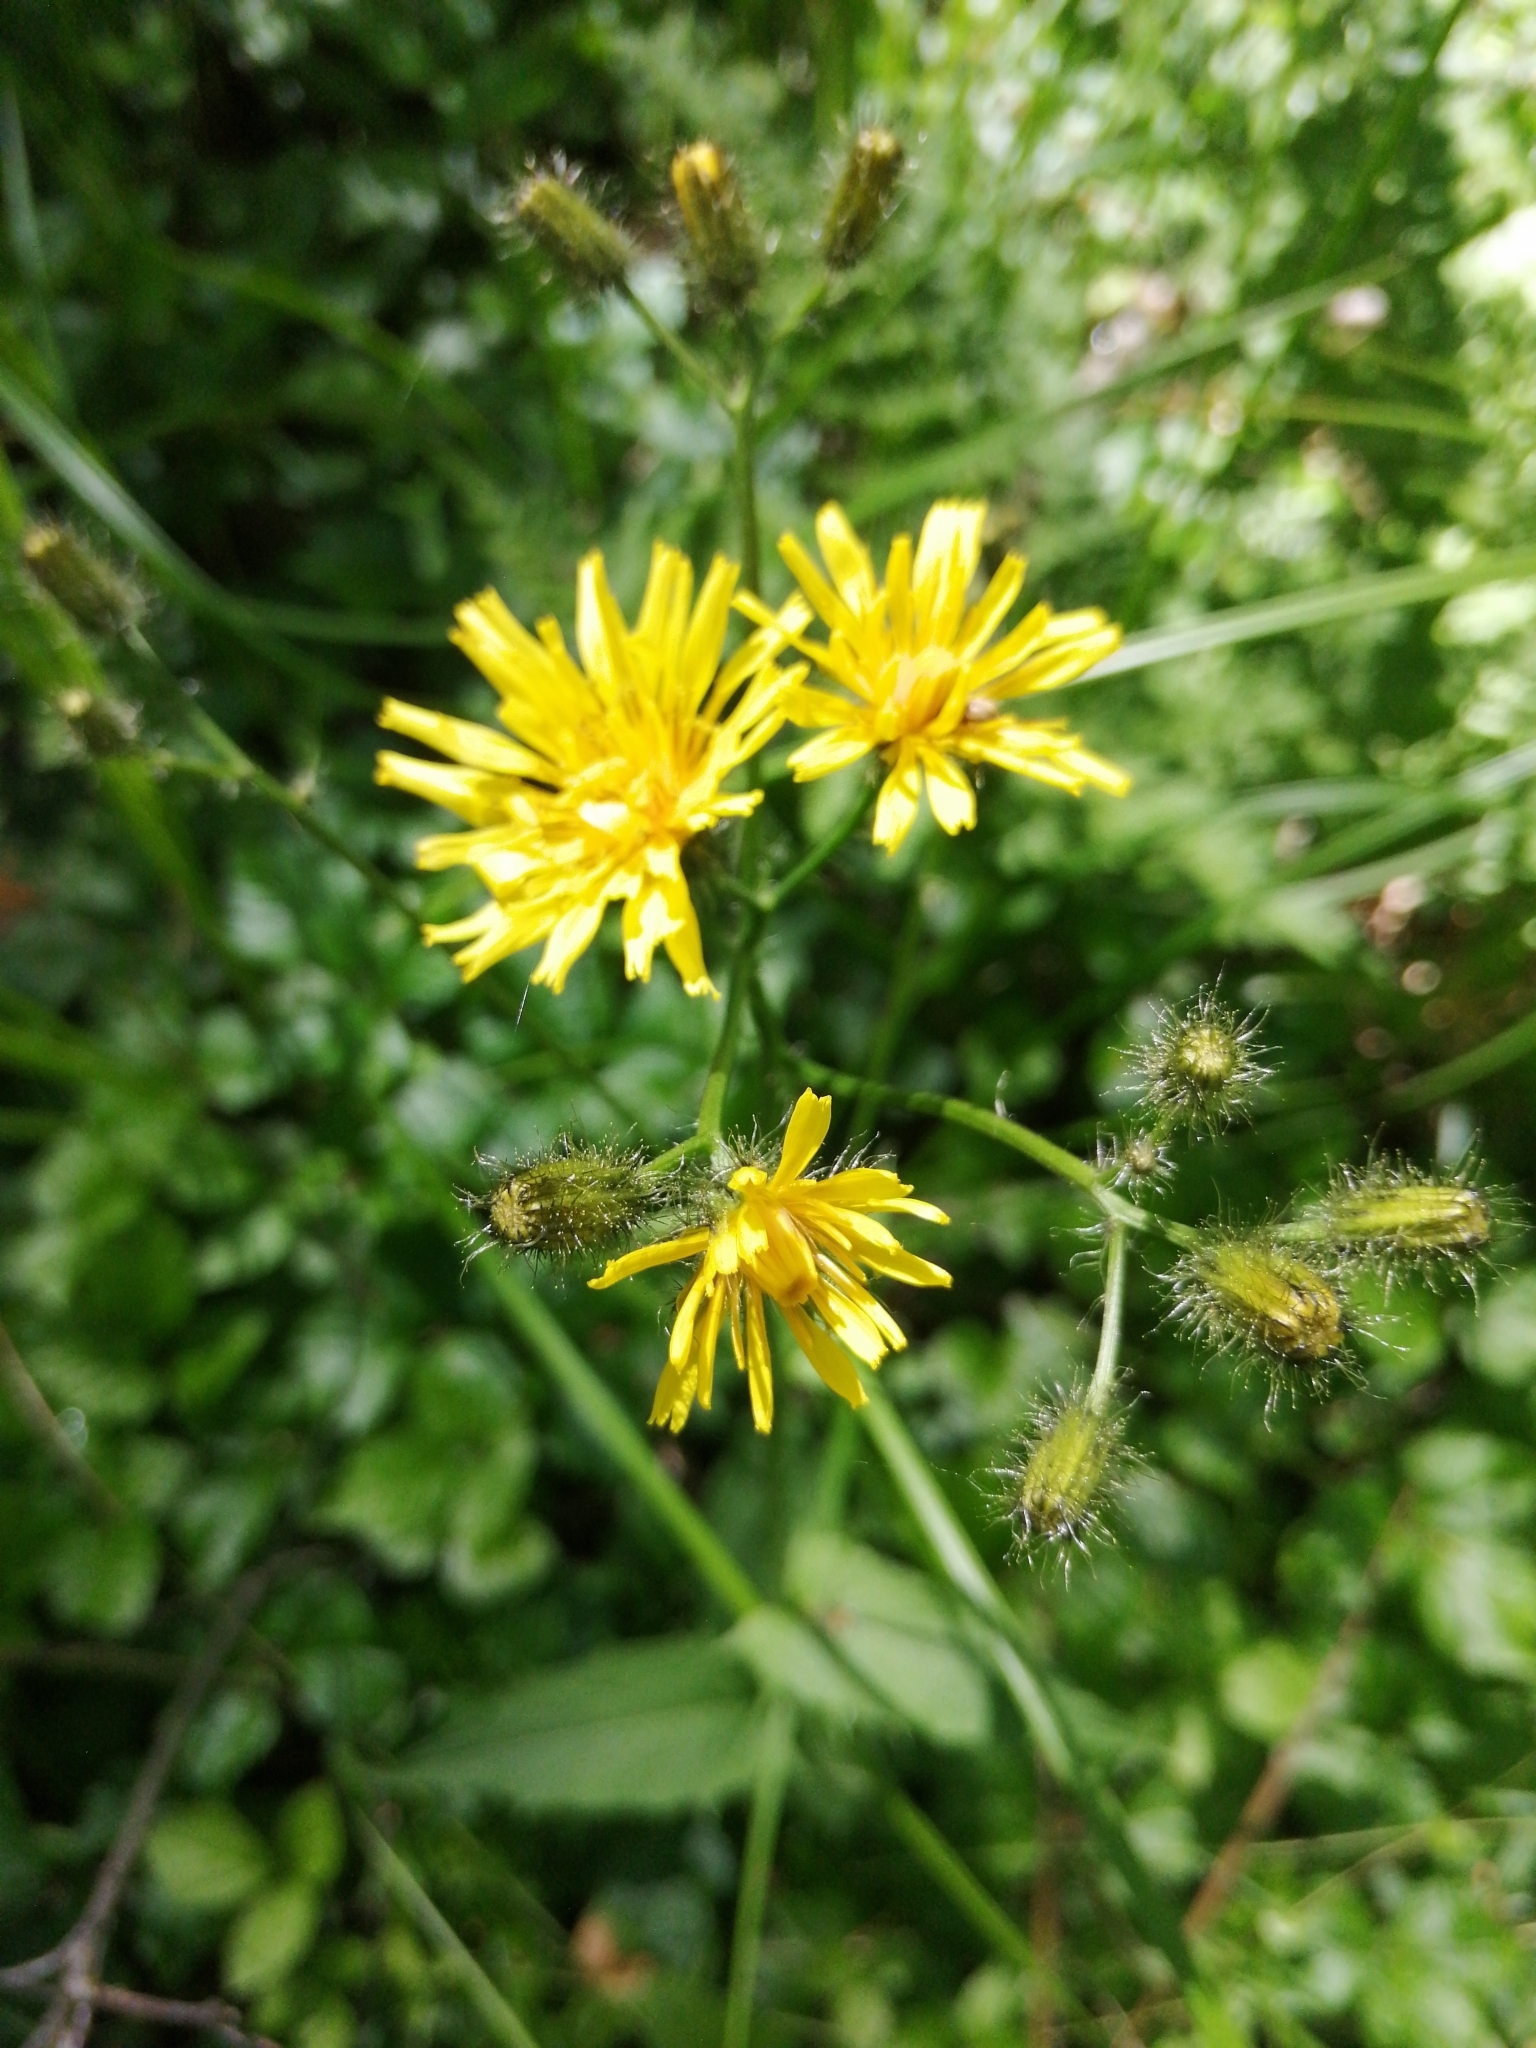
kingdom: Plantae
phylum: Tracheophyta
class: Magnoliopsida
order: Asterales
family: Asteraceae
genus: Crepis
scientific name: Crepis paludosa
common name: Marsh hawk's-beard
